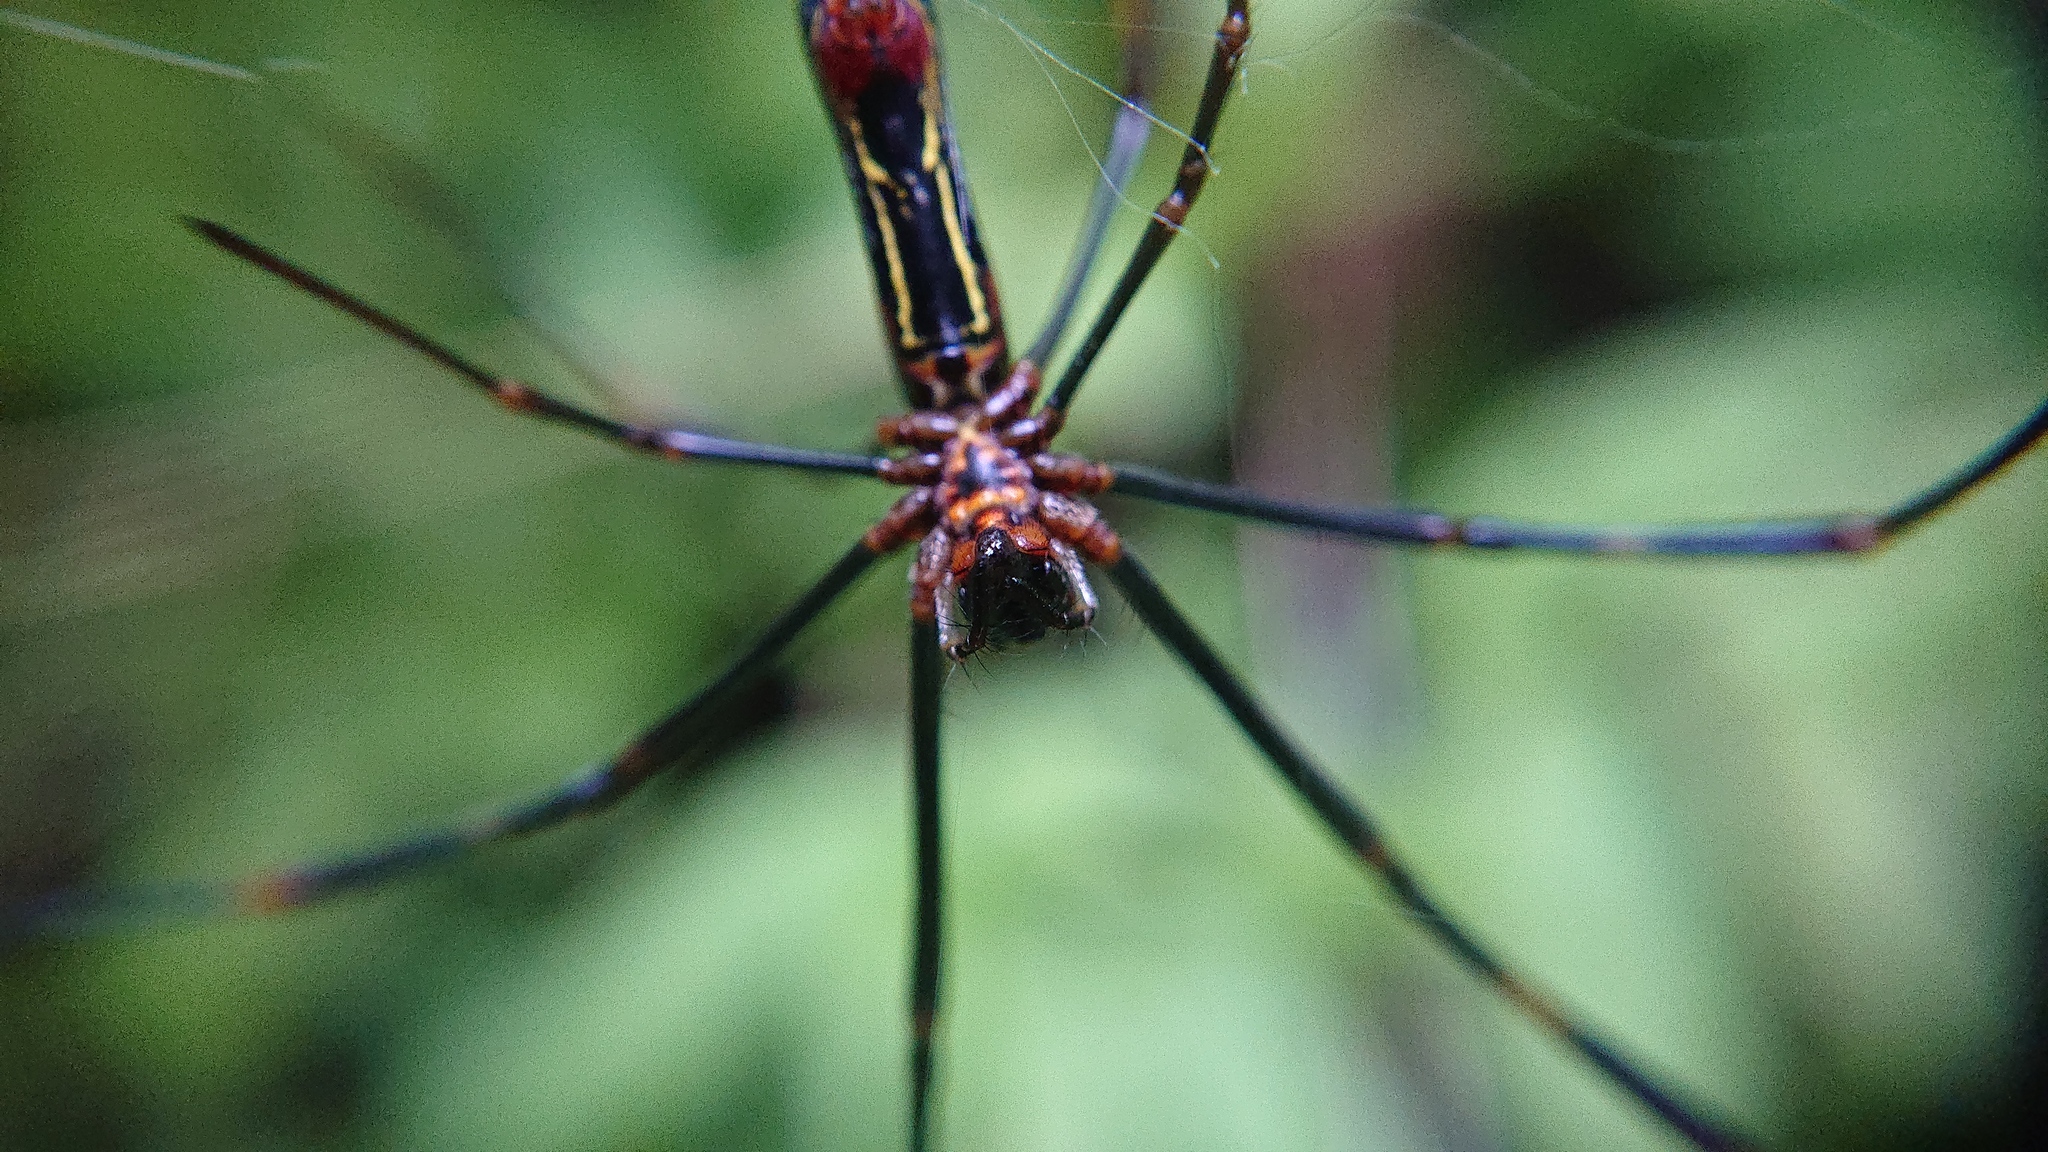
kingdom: Animalia
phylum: Arthropoda
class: Arachnida
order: Araneae
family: Araneidae
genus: Trichonephila
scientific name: Trichonephila clavipes
